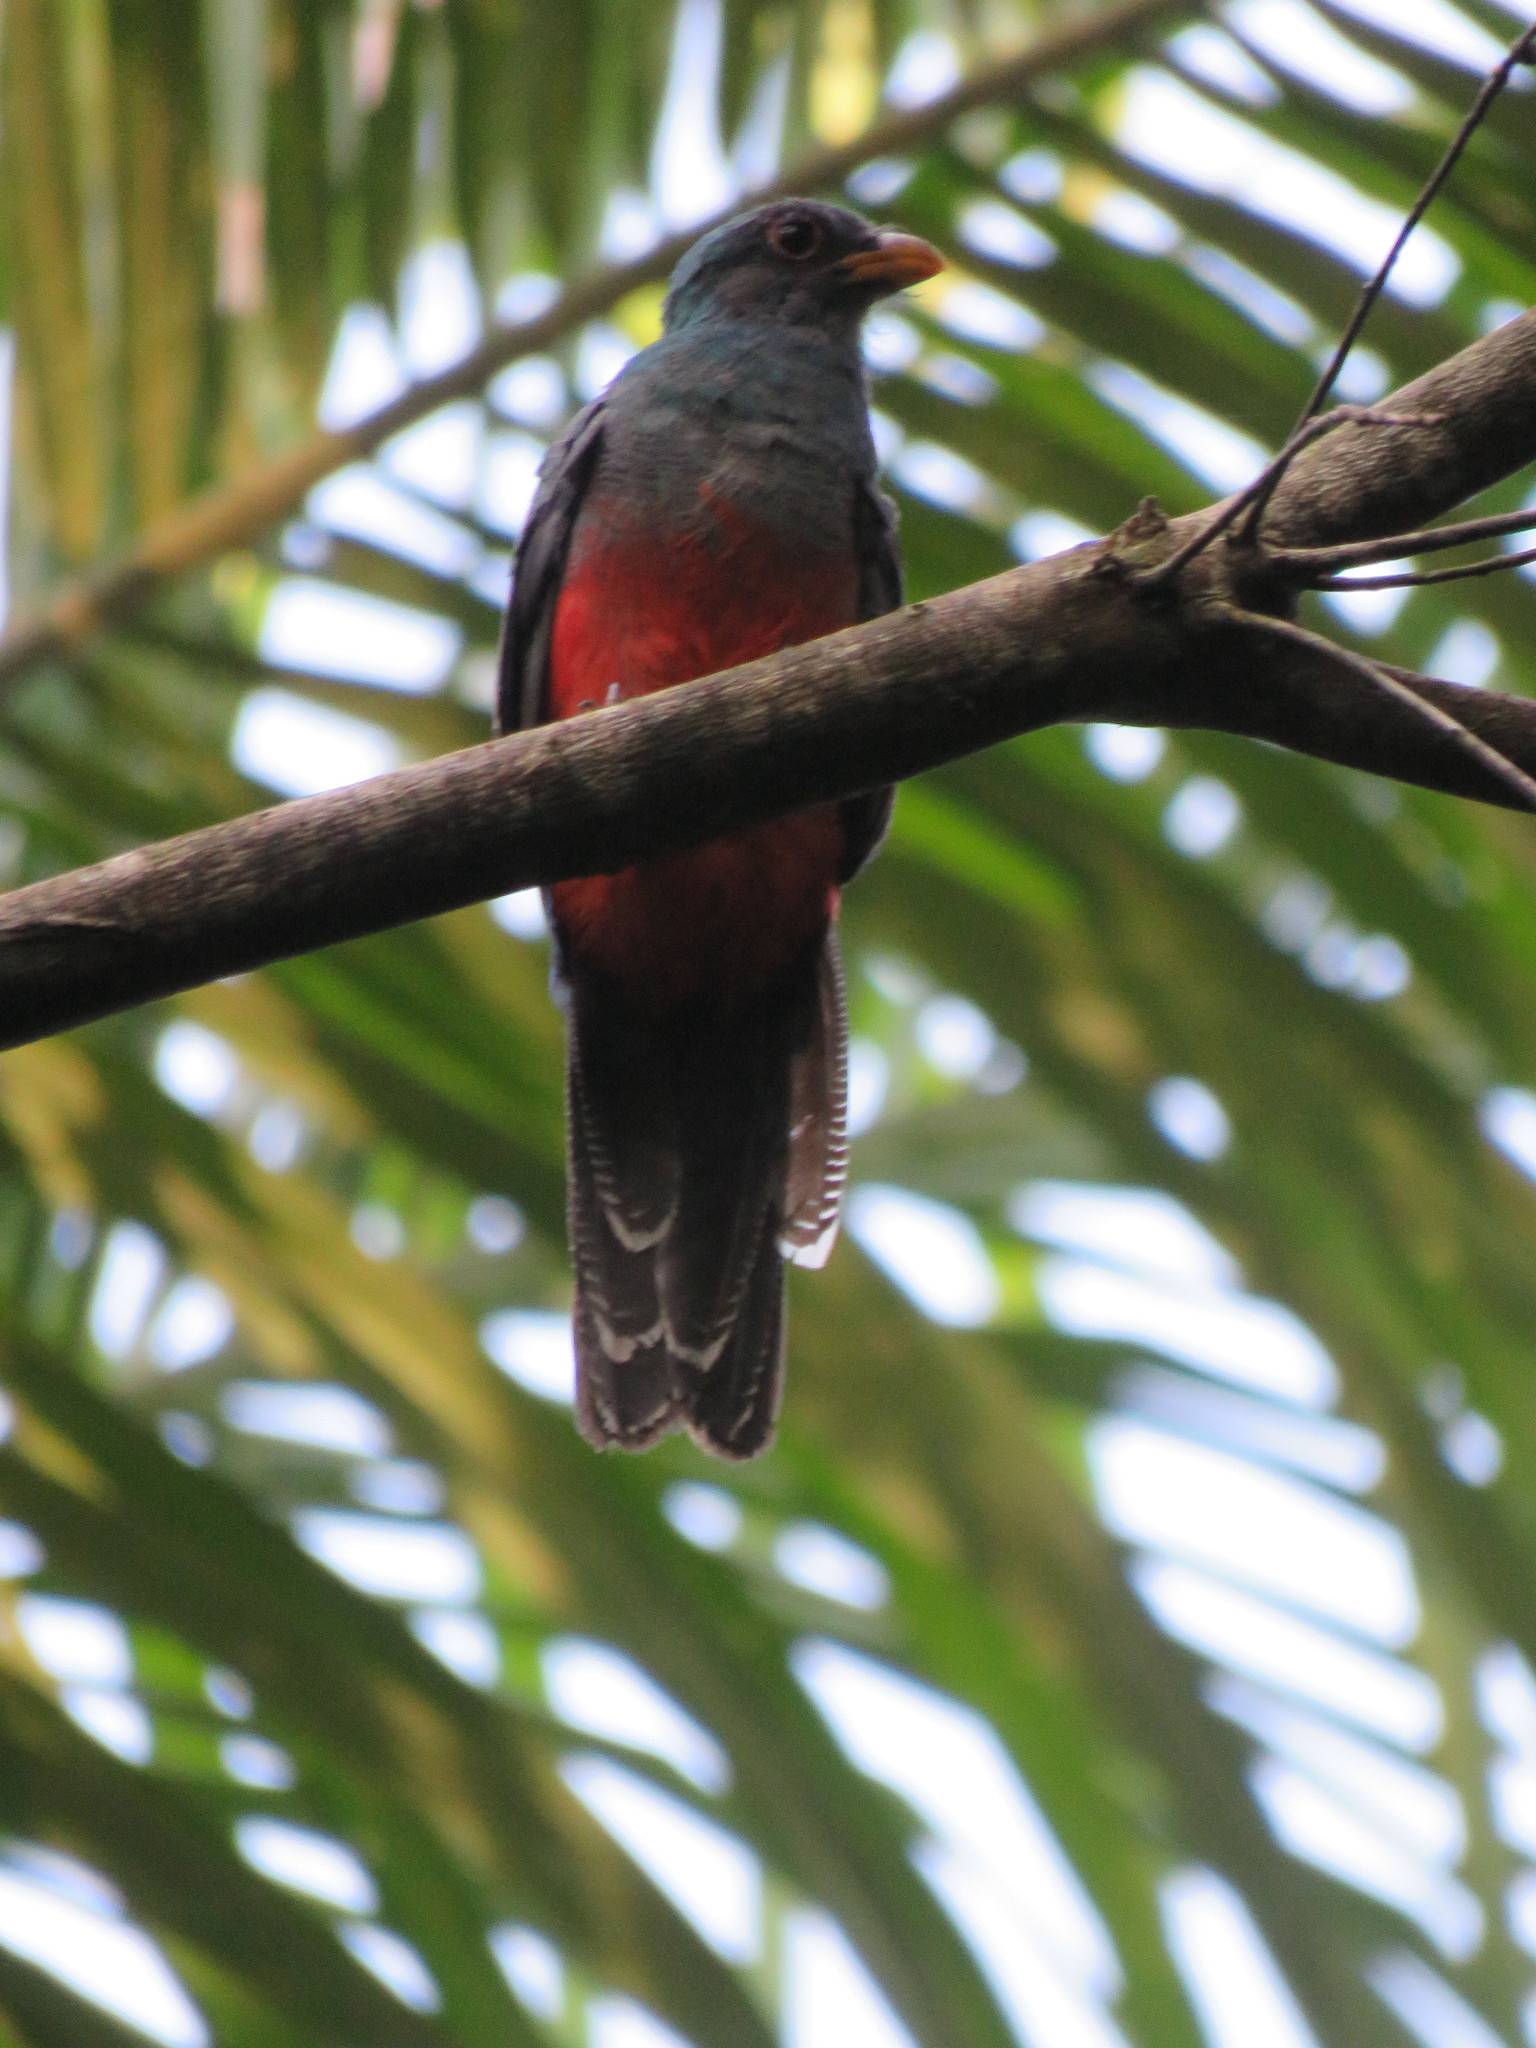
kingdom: Animalia
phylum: Chordata
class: Aves
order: Trogoniformes
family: Trogonidae
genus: Trogon
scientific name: Trogon curucui
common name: Blue-crowned trogon
